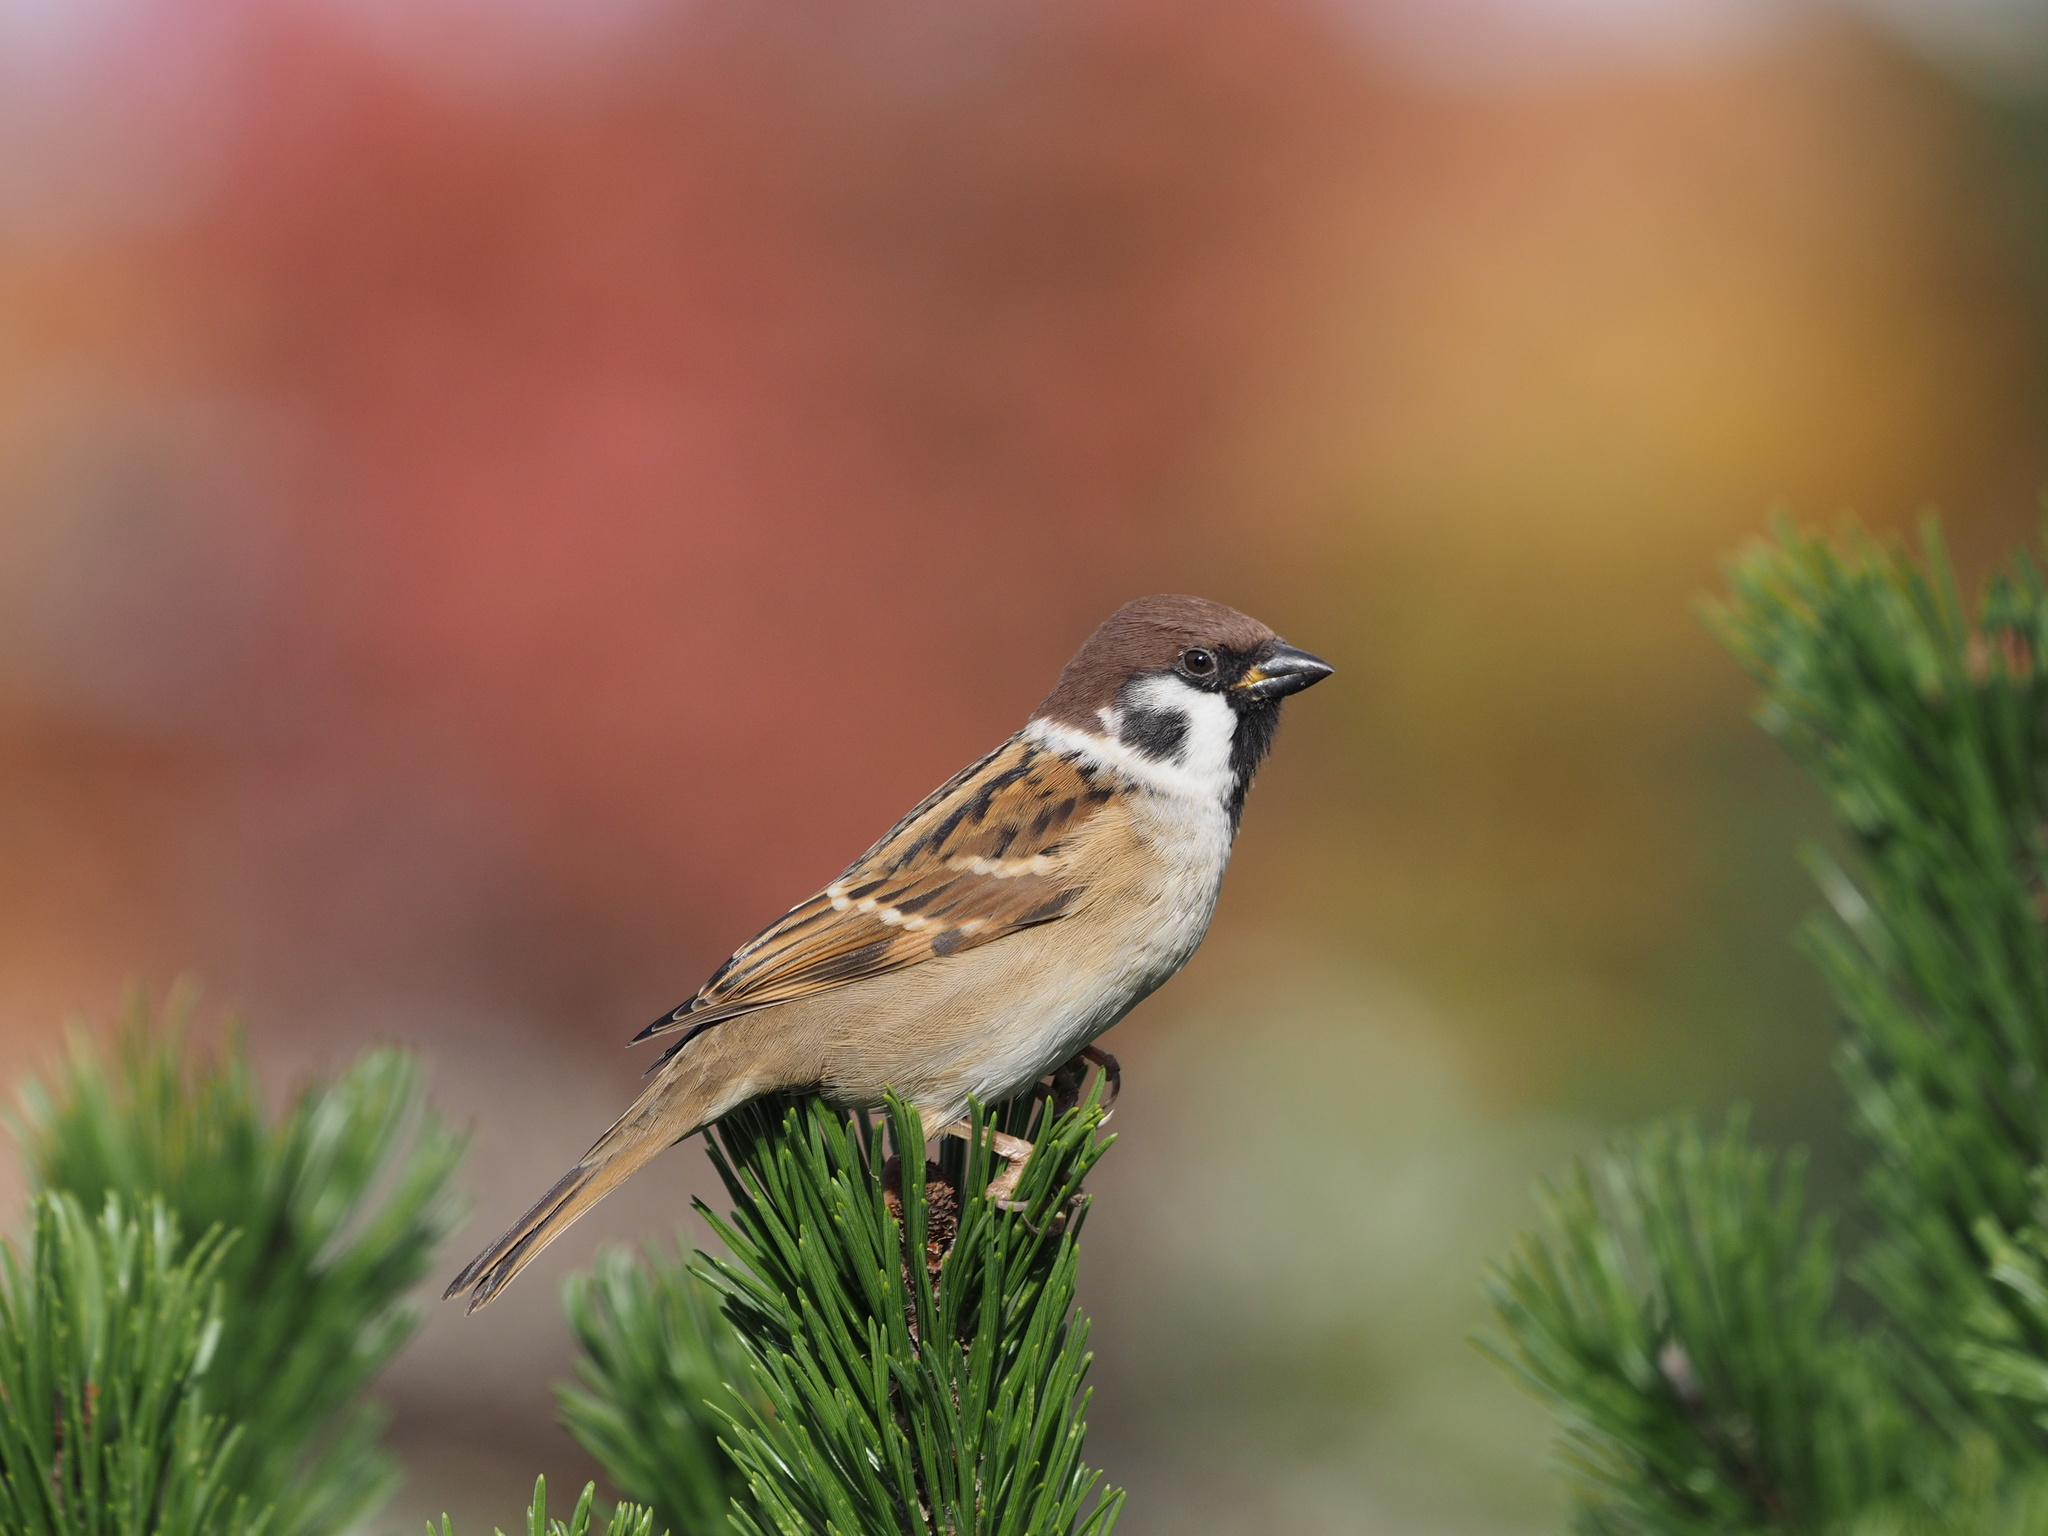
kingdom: Animalia
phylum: Chordata
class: Aves
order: Passeriformes
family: Passeridae
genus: Passer
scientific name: Passer montanus
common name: Eurasian tree sparrow
